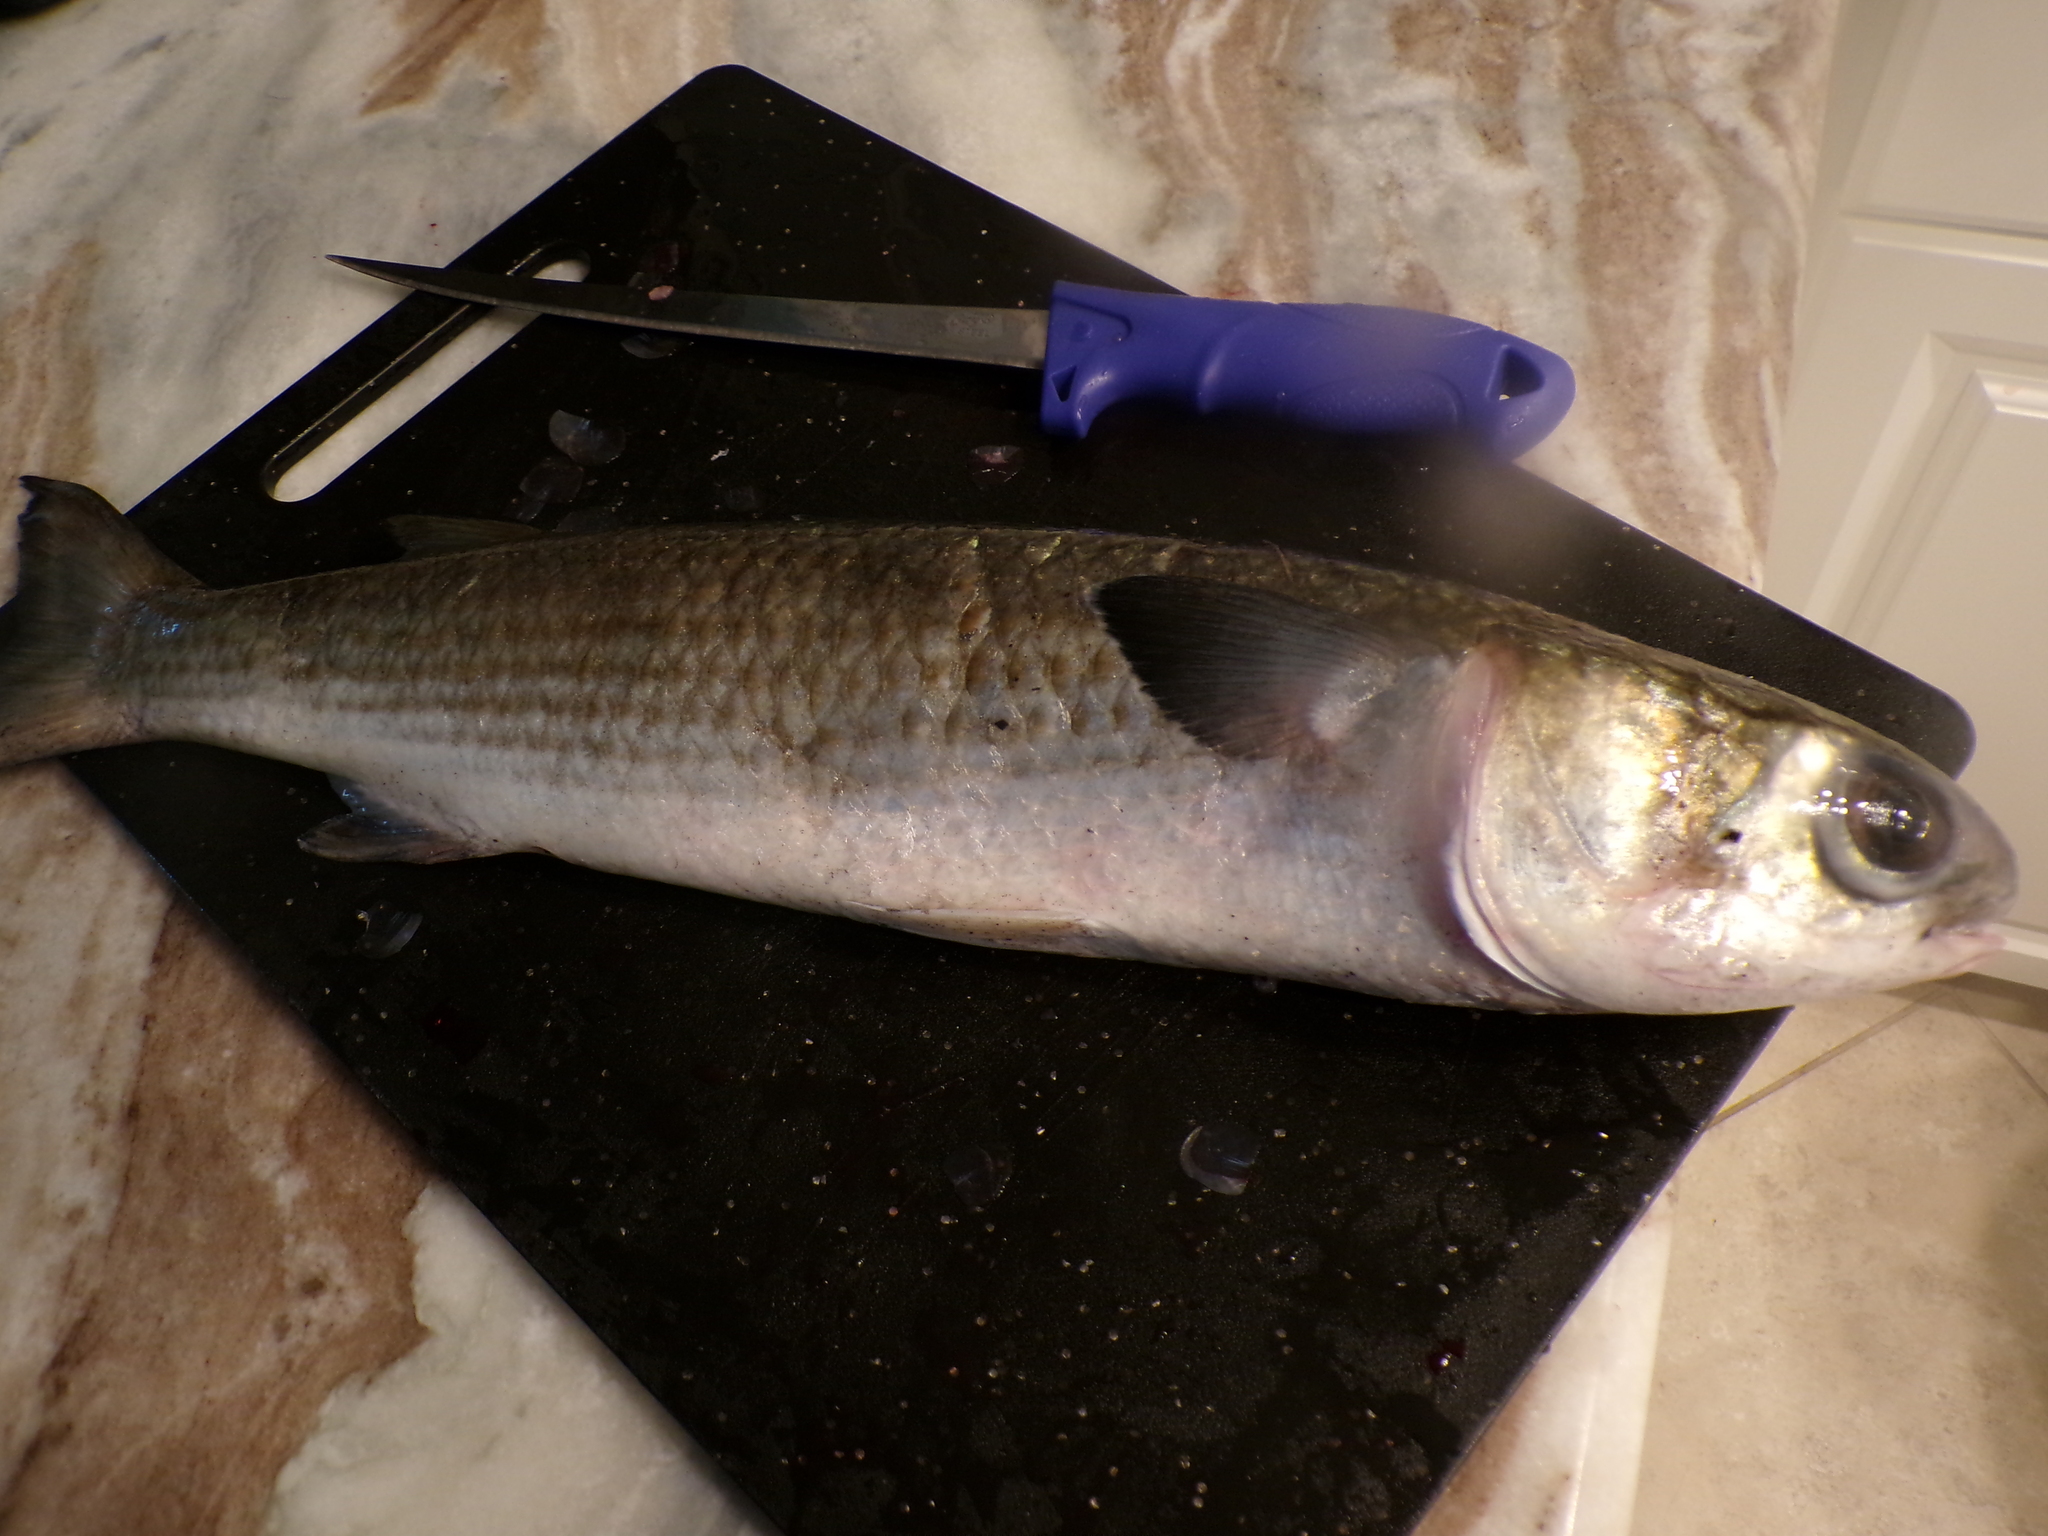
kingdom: Animalia
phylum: Chordata
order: Mugiliformes
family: Mugilidae
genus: Mugil
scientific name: Mugil cephalus
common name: Grey mullet
